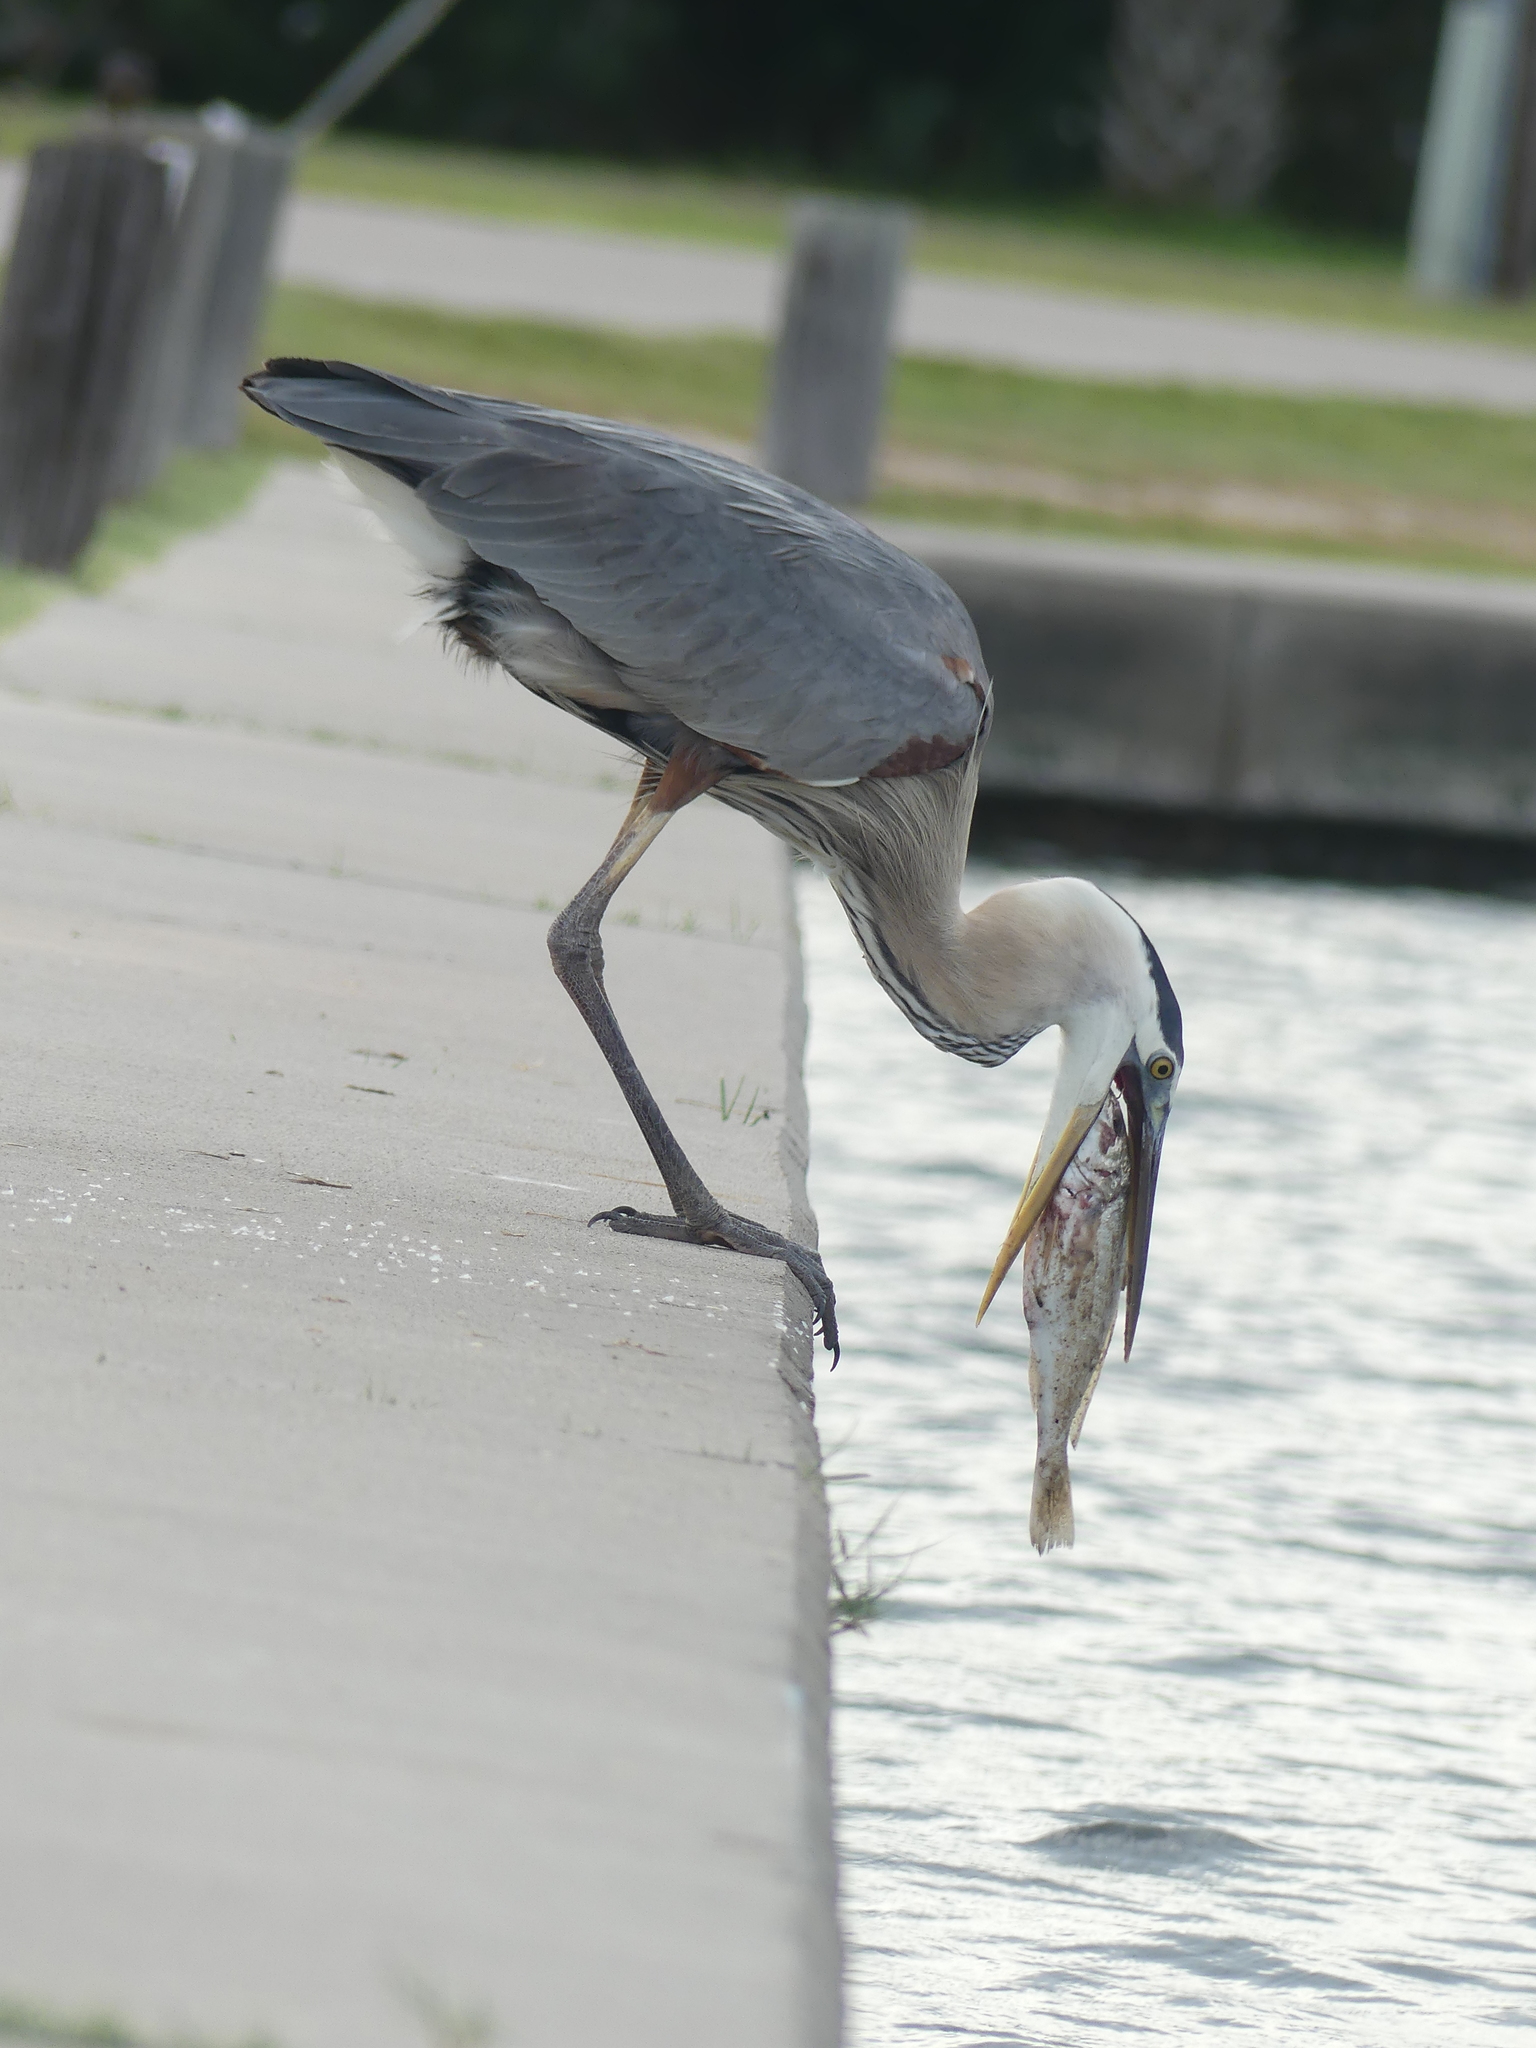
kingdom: Animalia
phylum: Chordata
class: Aves
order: Pelecaniformes
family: Ardeidae
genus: Ardea
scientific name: Ardea herodias
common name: Great blue heron
